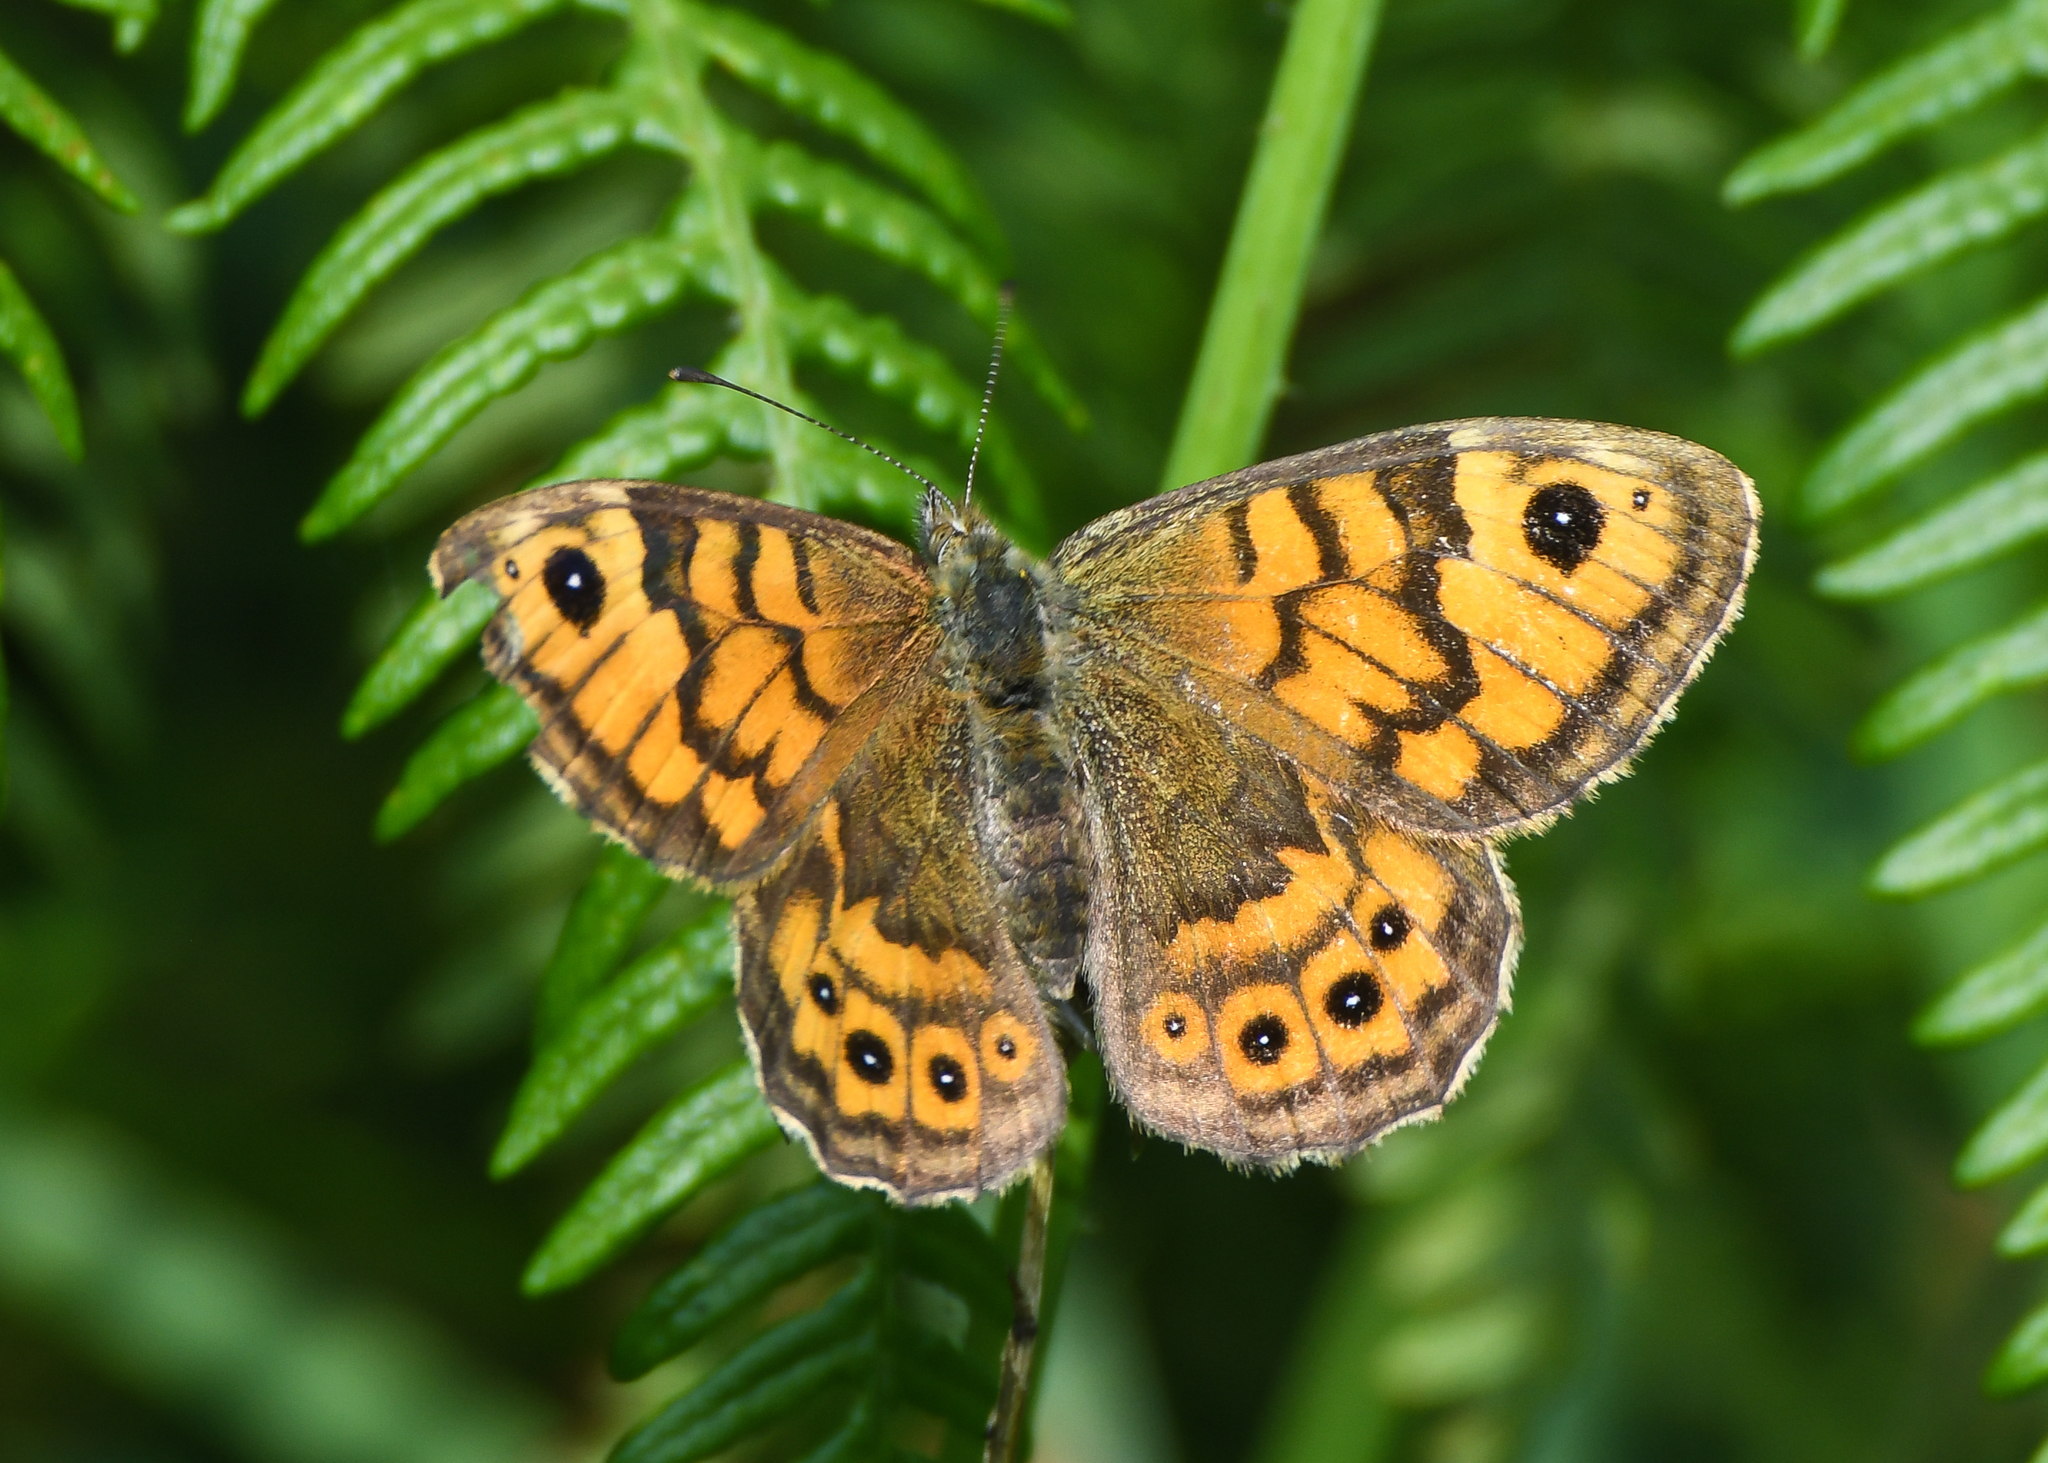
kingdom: Animalia
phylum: Arthropoda
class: Insecta
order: Lepidoptera
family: Nymphalidae
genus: Pararge
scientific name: Pararge Lasiommata megera
